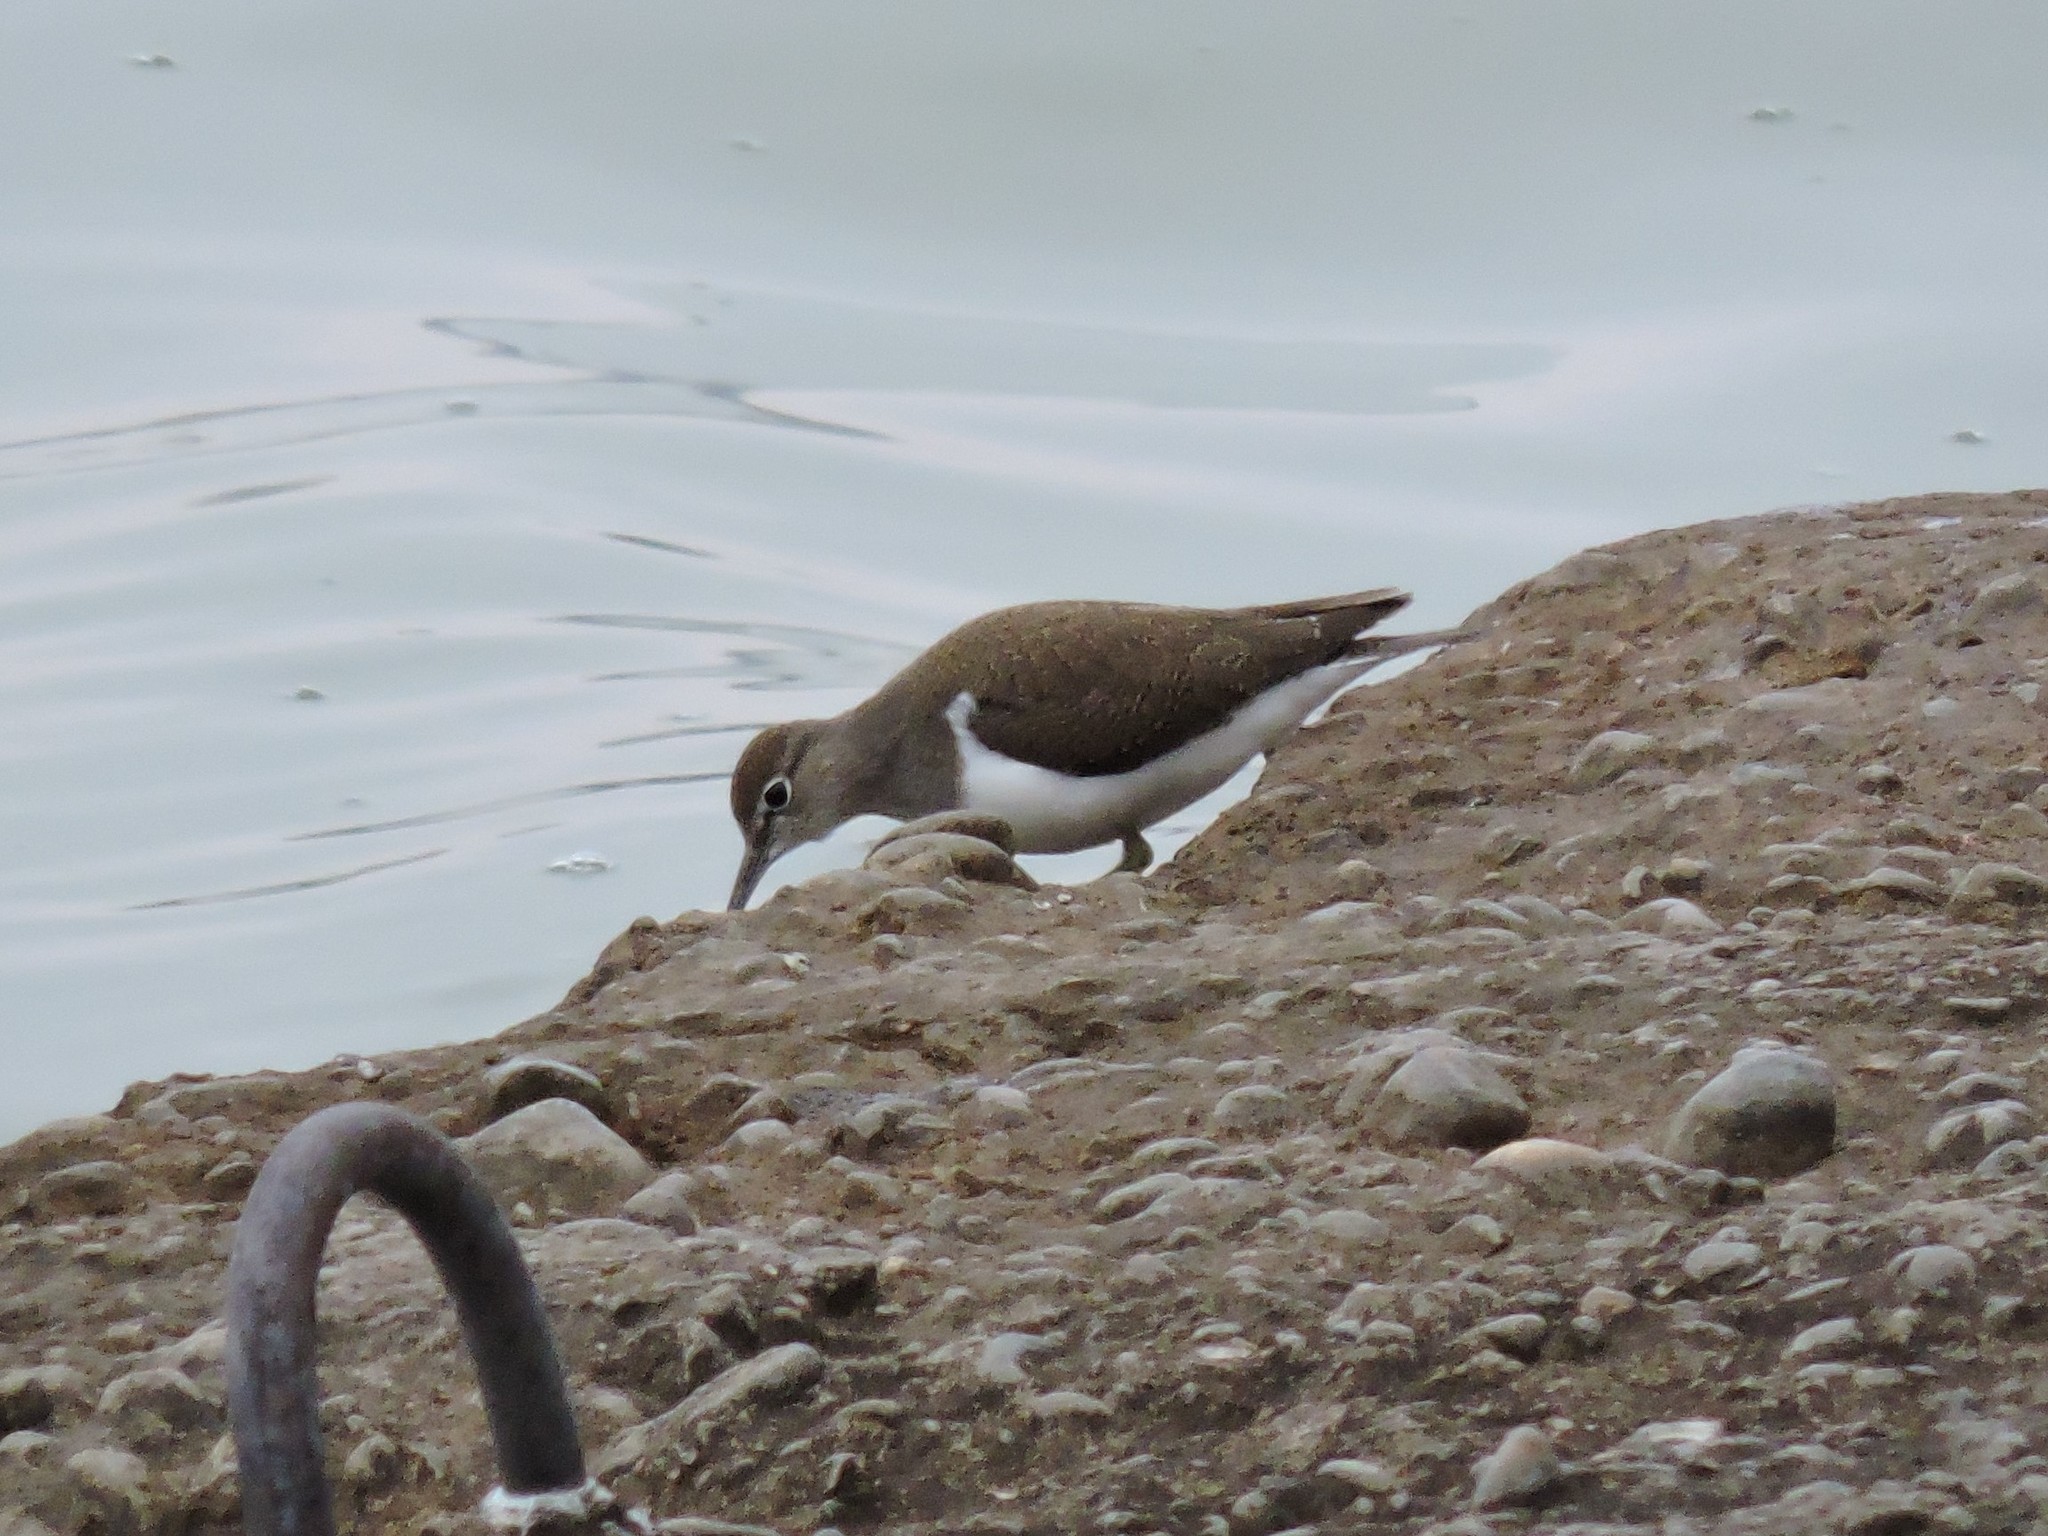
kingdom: Animalia
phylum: Chordata
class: Aves
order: Charadriiformes
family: Scolopacidae
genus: Actitis
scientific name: Actitis hypoleucos
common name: Common sandpiper
